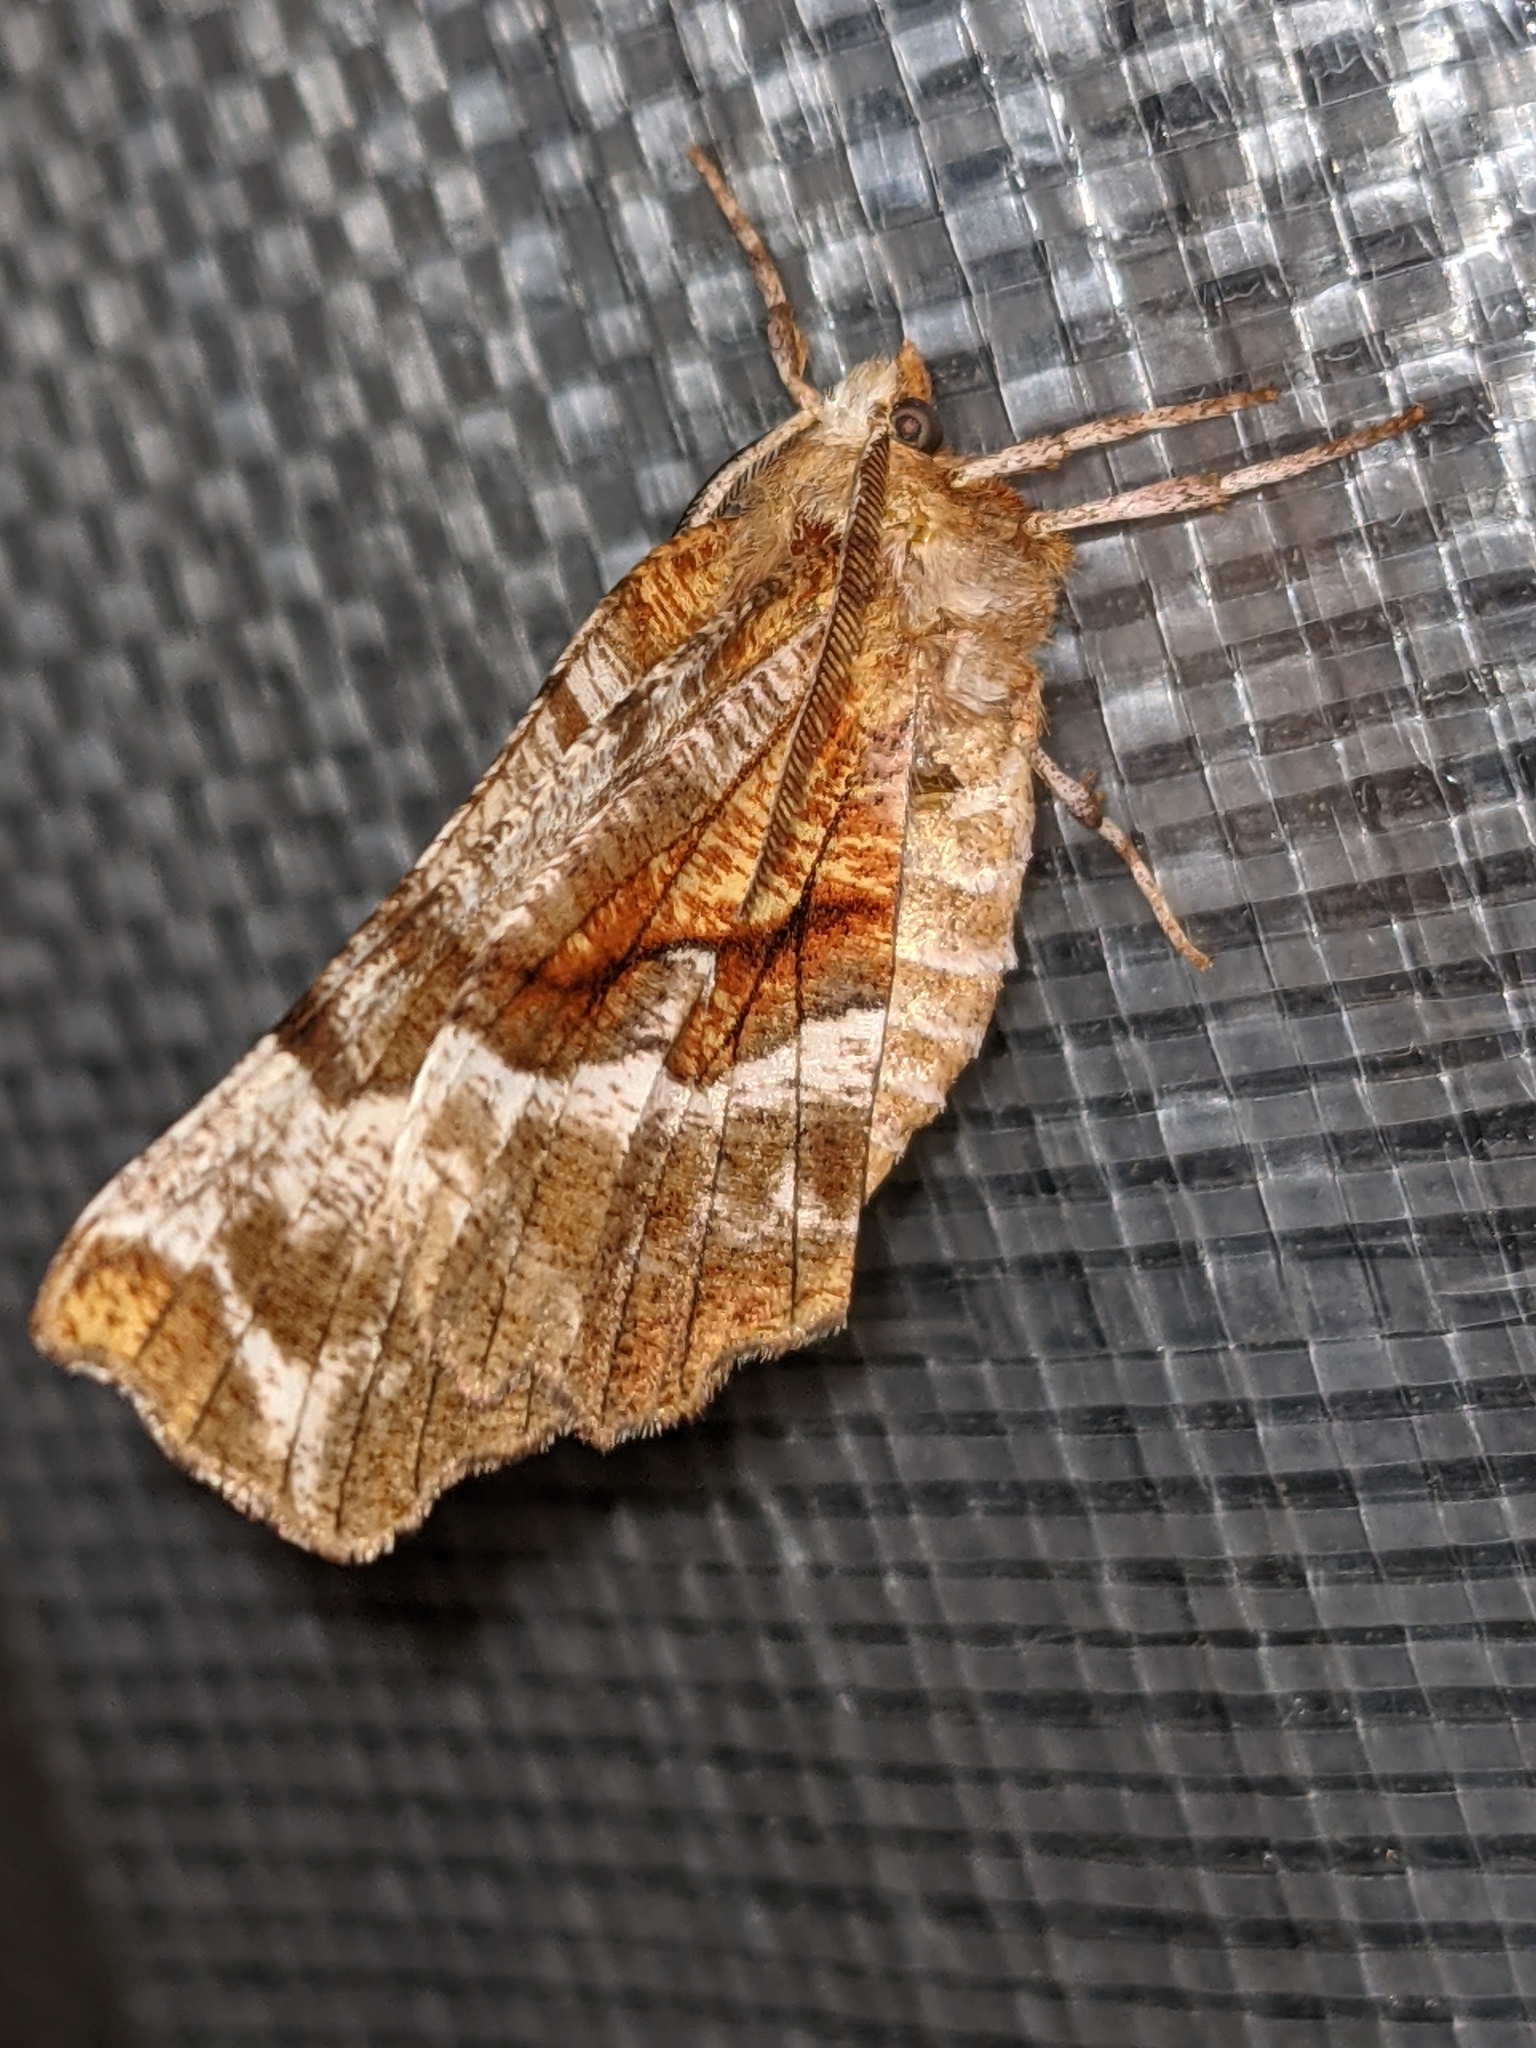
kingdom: Animalia
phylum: Arthropoda
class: Insecta
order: Lepidoptera
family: Geometridae
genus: Selenia
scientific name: Selenia kentaria
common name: Kent's geometer
